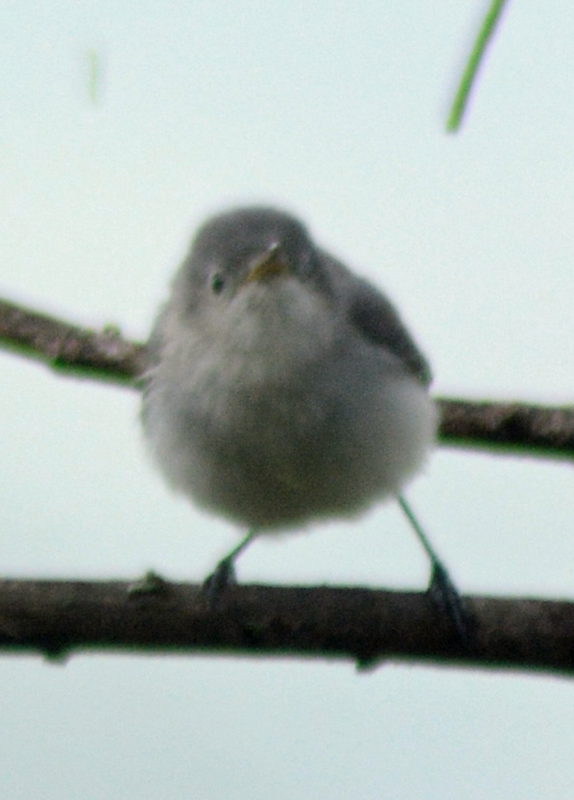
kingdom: Animalia
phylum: Chordata
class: Aves
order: Passeriformes
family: Polioptilidae
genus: Polioptila
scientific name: Polioptila caerulea
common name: Blue-gray gnatcatcher
